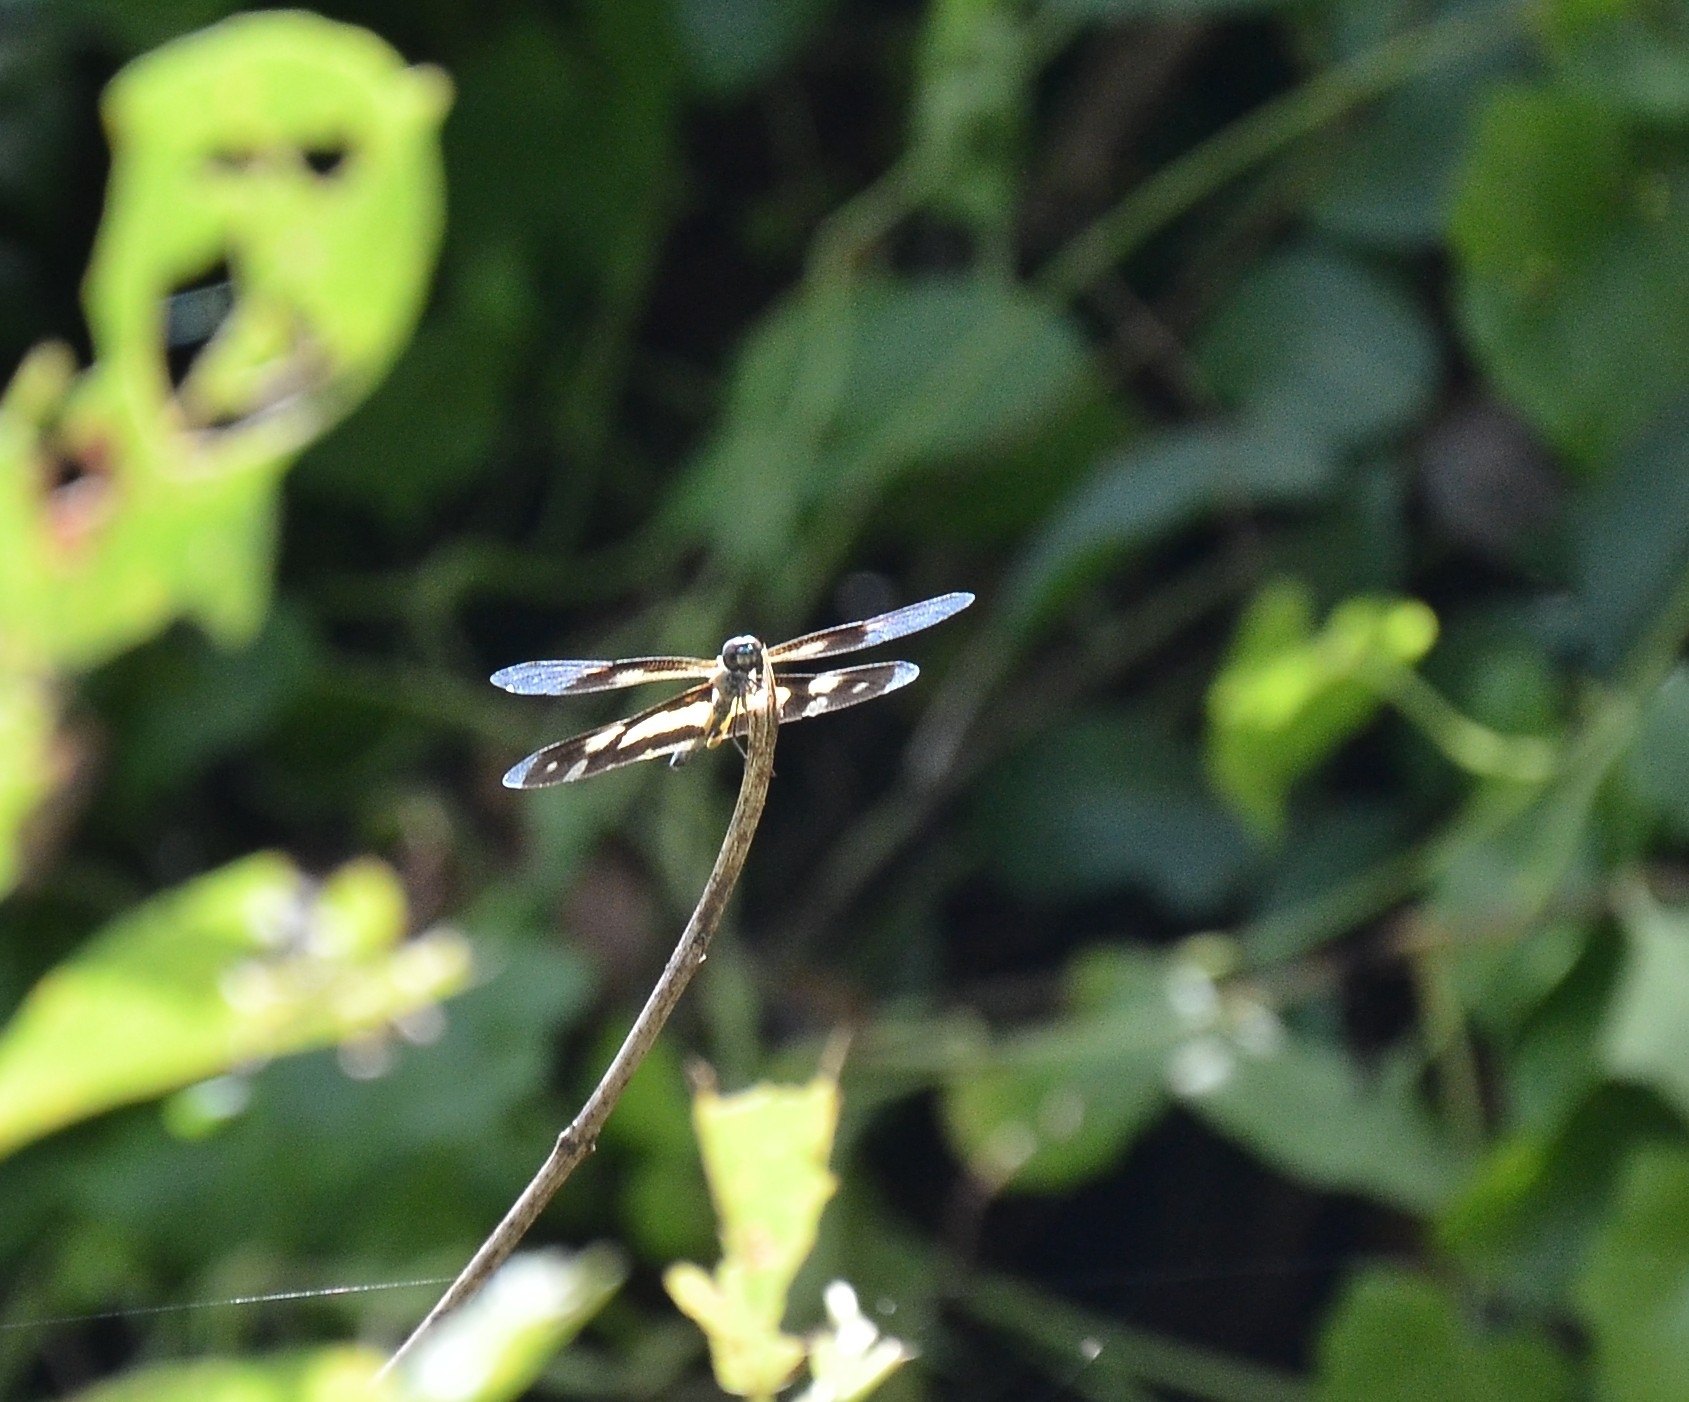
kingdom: Animalia
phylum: Arthropoda
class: Insecta
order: Odonata
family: Libellulidae
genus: Rhyothemis
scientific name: Rhyothemis variegata
